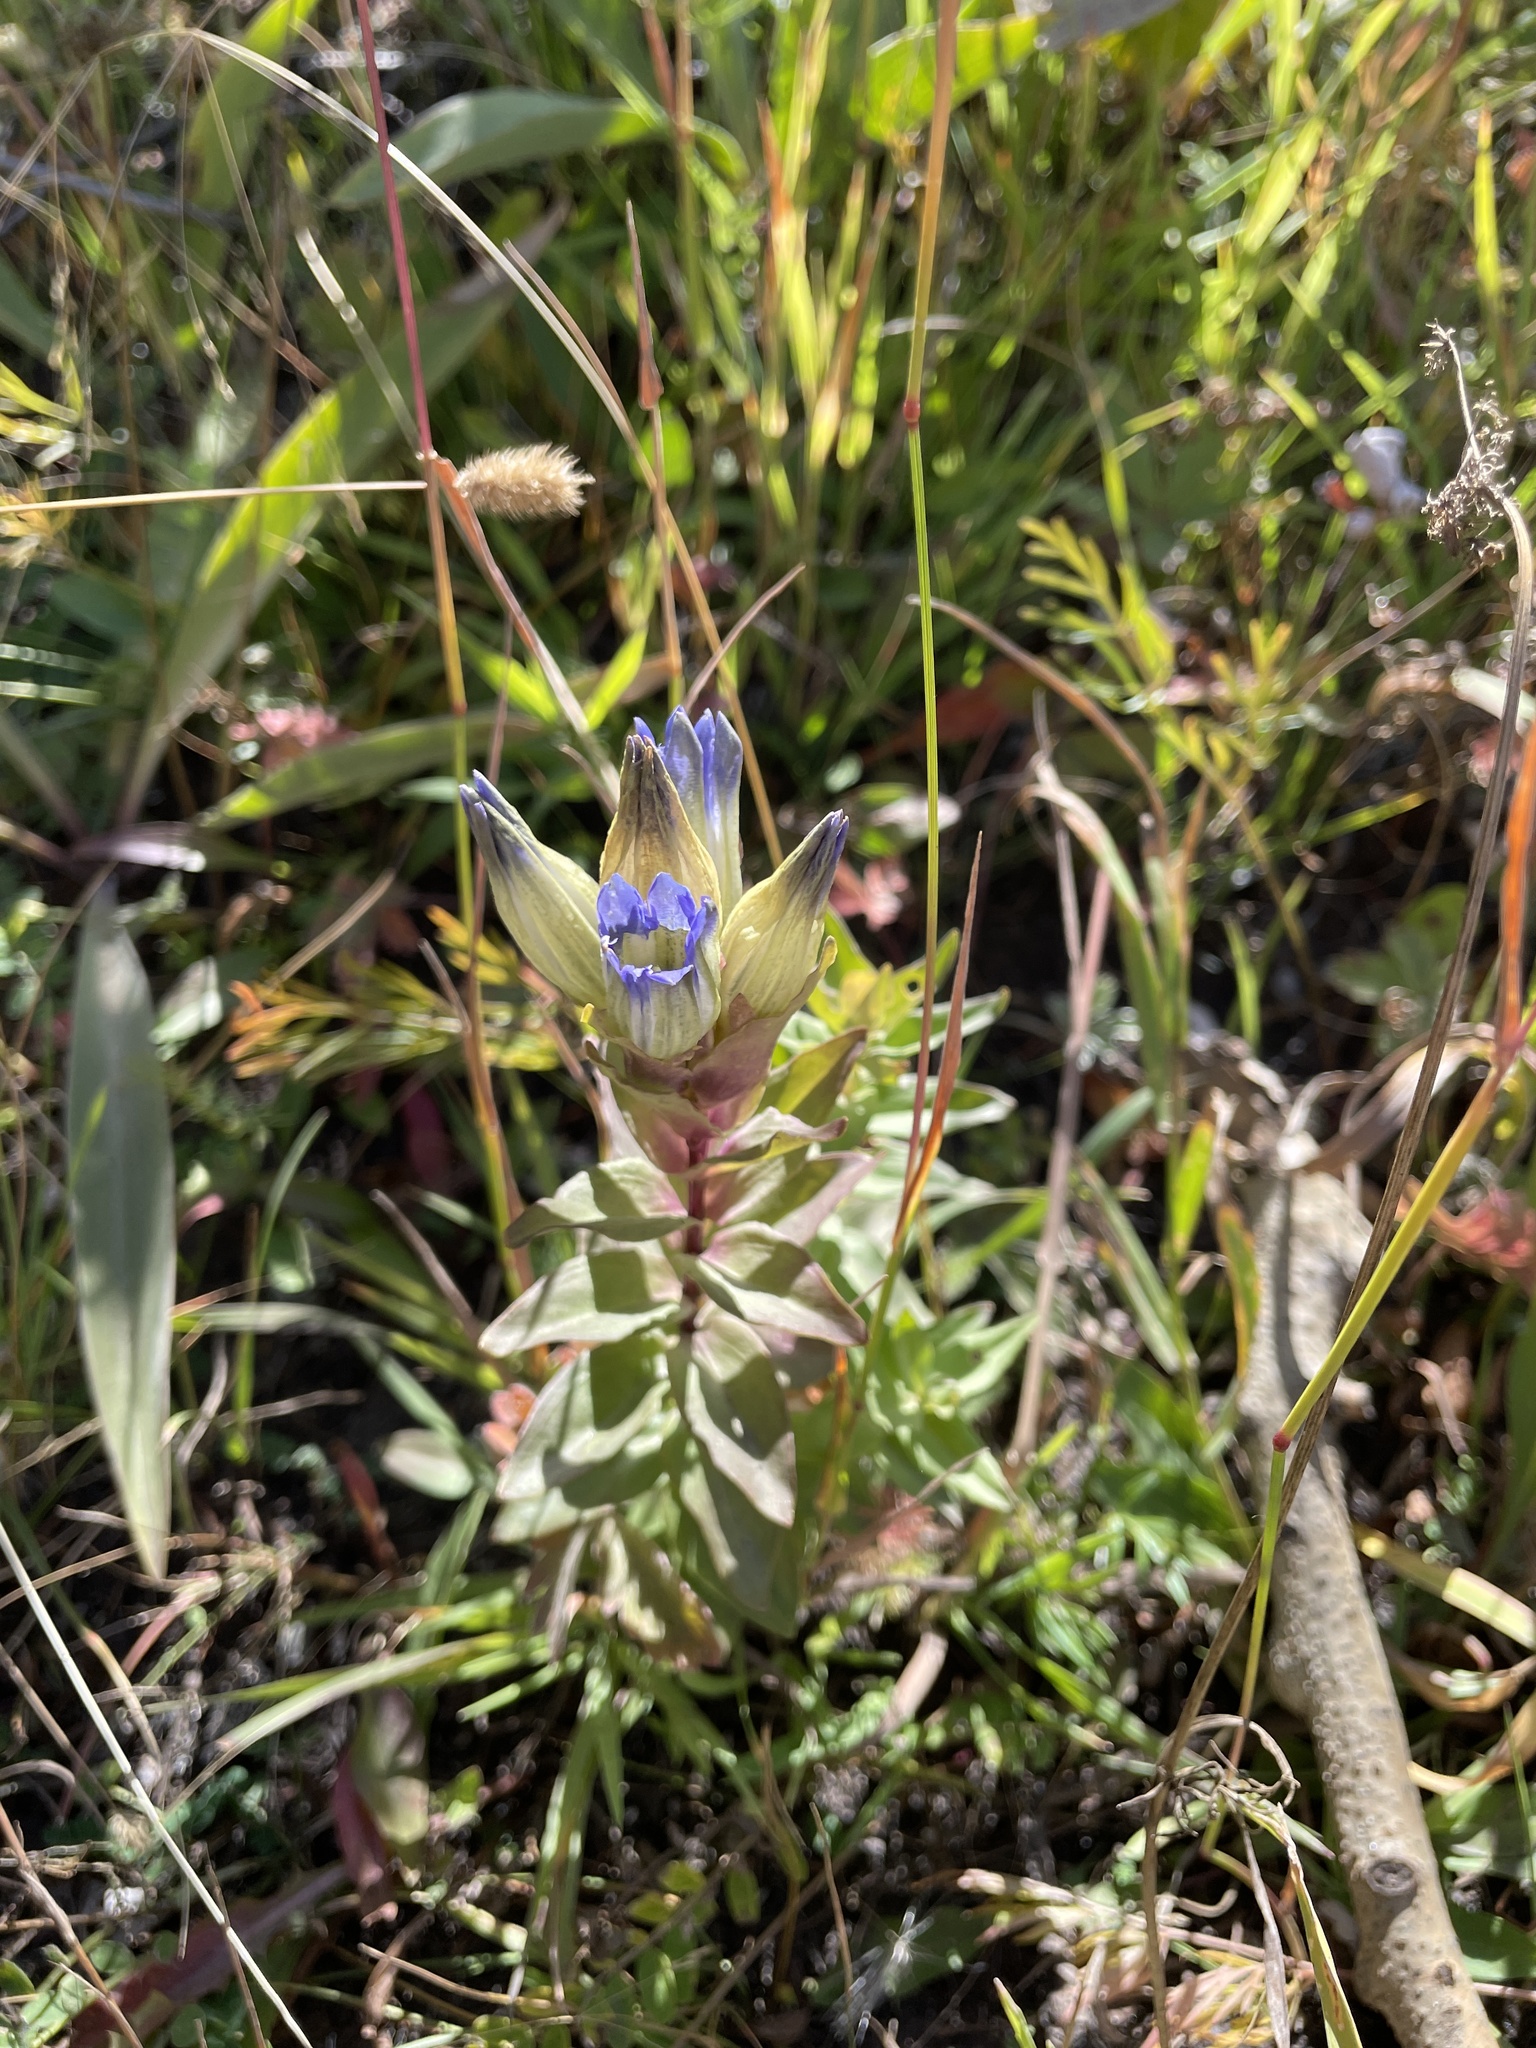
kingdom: Plantae
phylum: Tracheophyta
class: Magnoliopsida
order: Gentianales
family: Gentianaceae
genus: Gentiana
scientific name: Gentiana parryi
